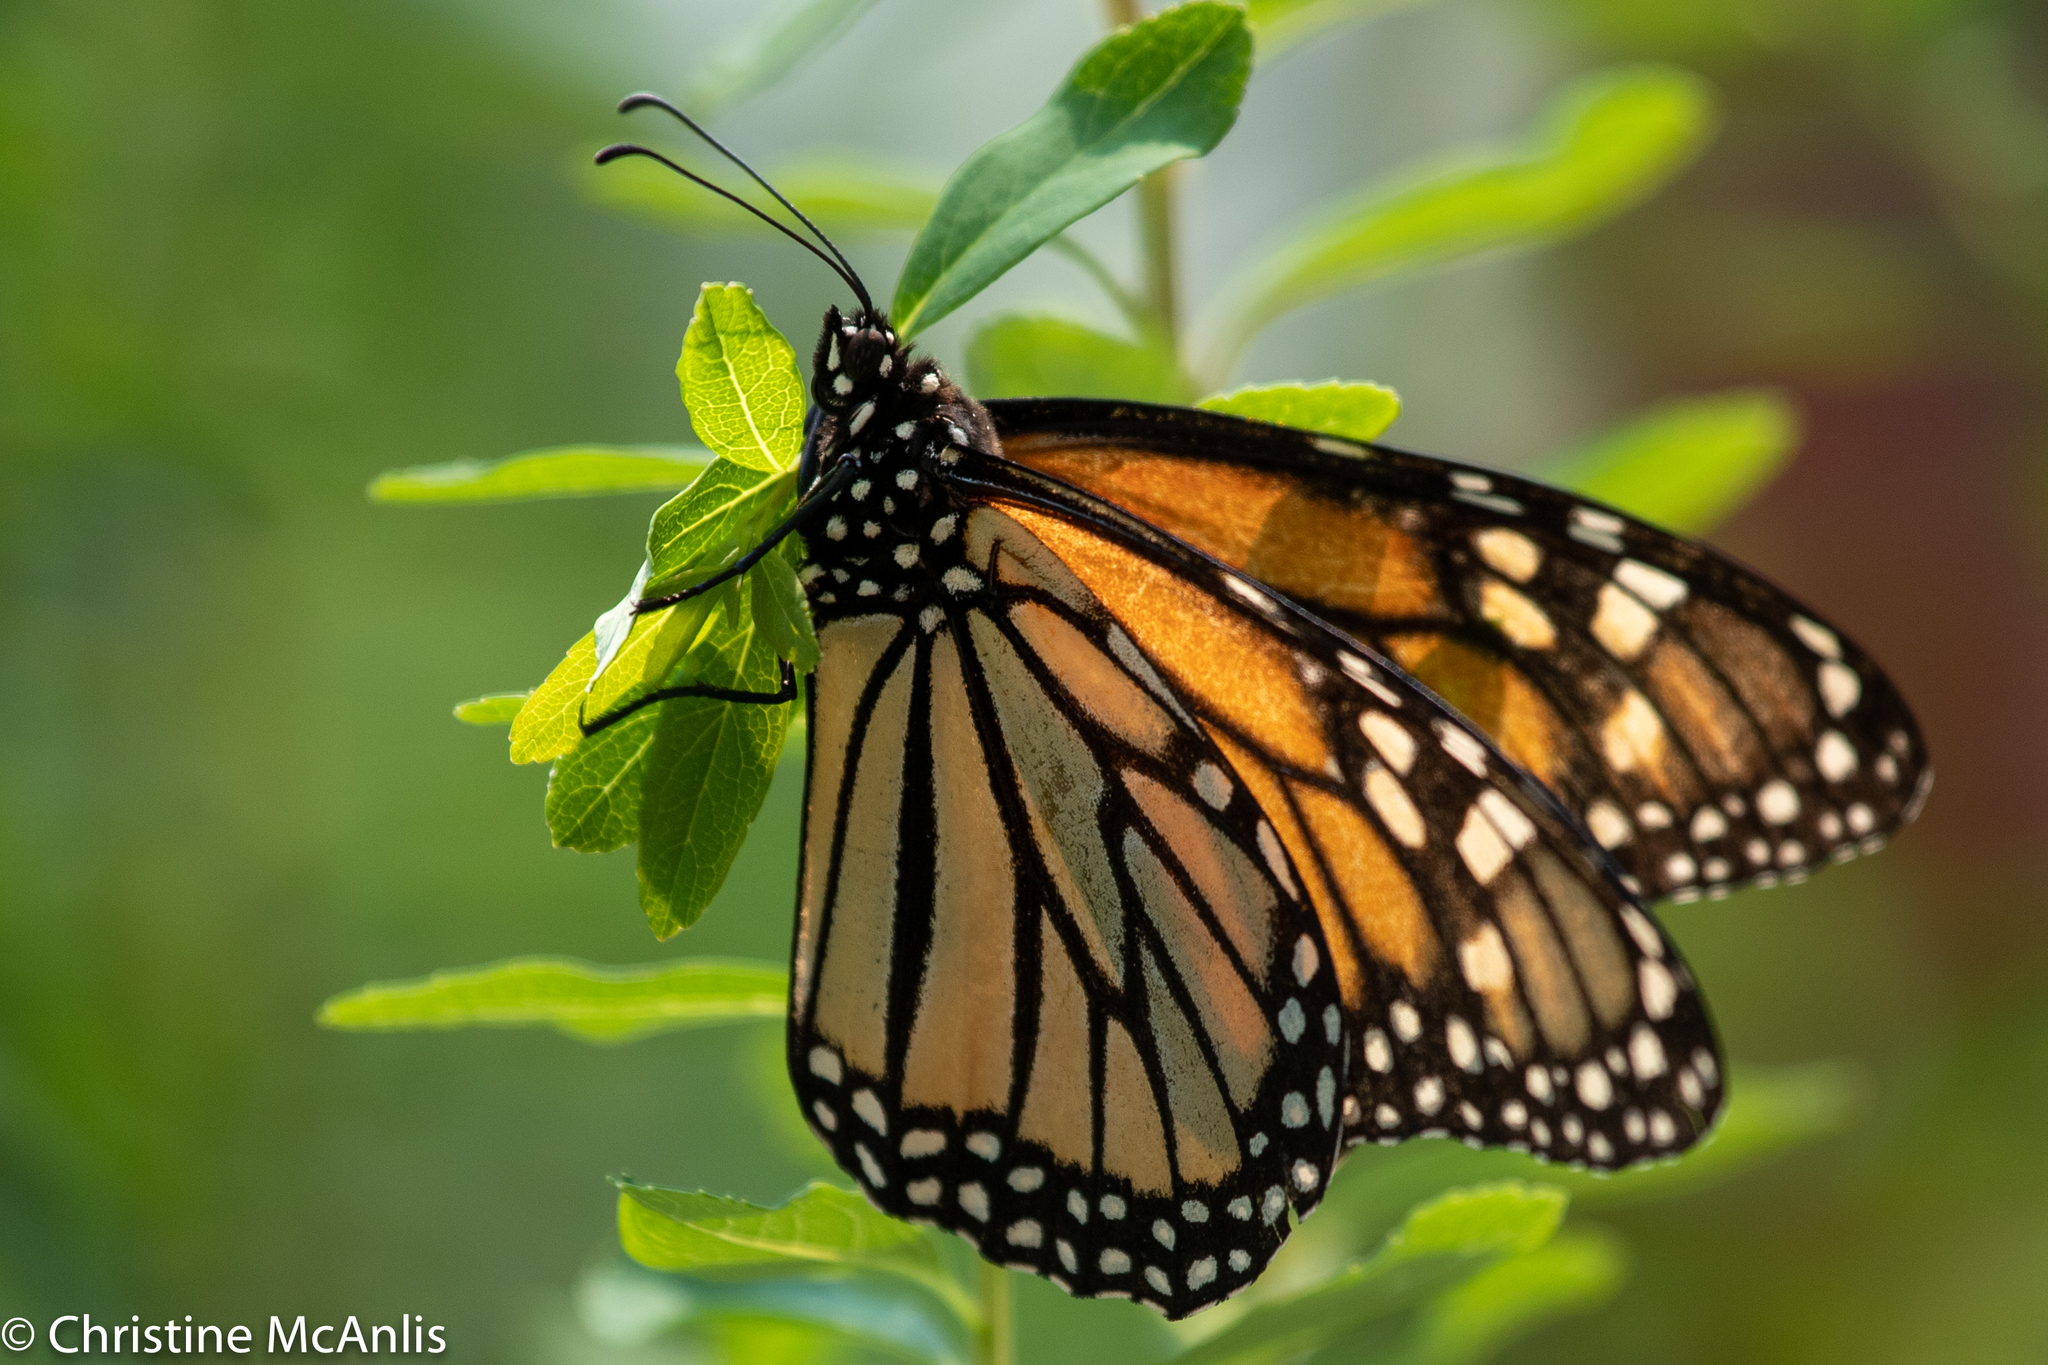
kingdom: Animalia
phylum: Arthropoda
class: Insecta
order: Lepidoptera
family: Nymphalidae
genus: Danaus
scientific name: Danaus plexippus
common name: Monarch
